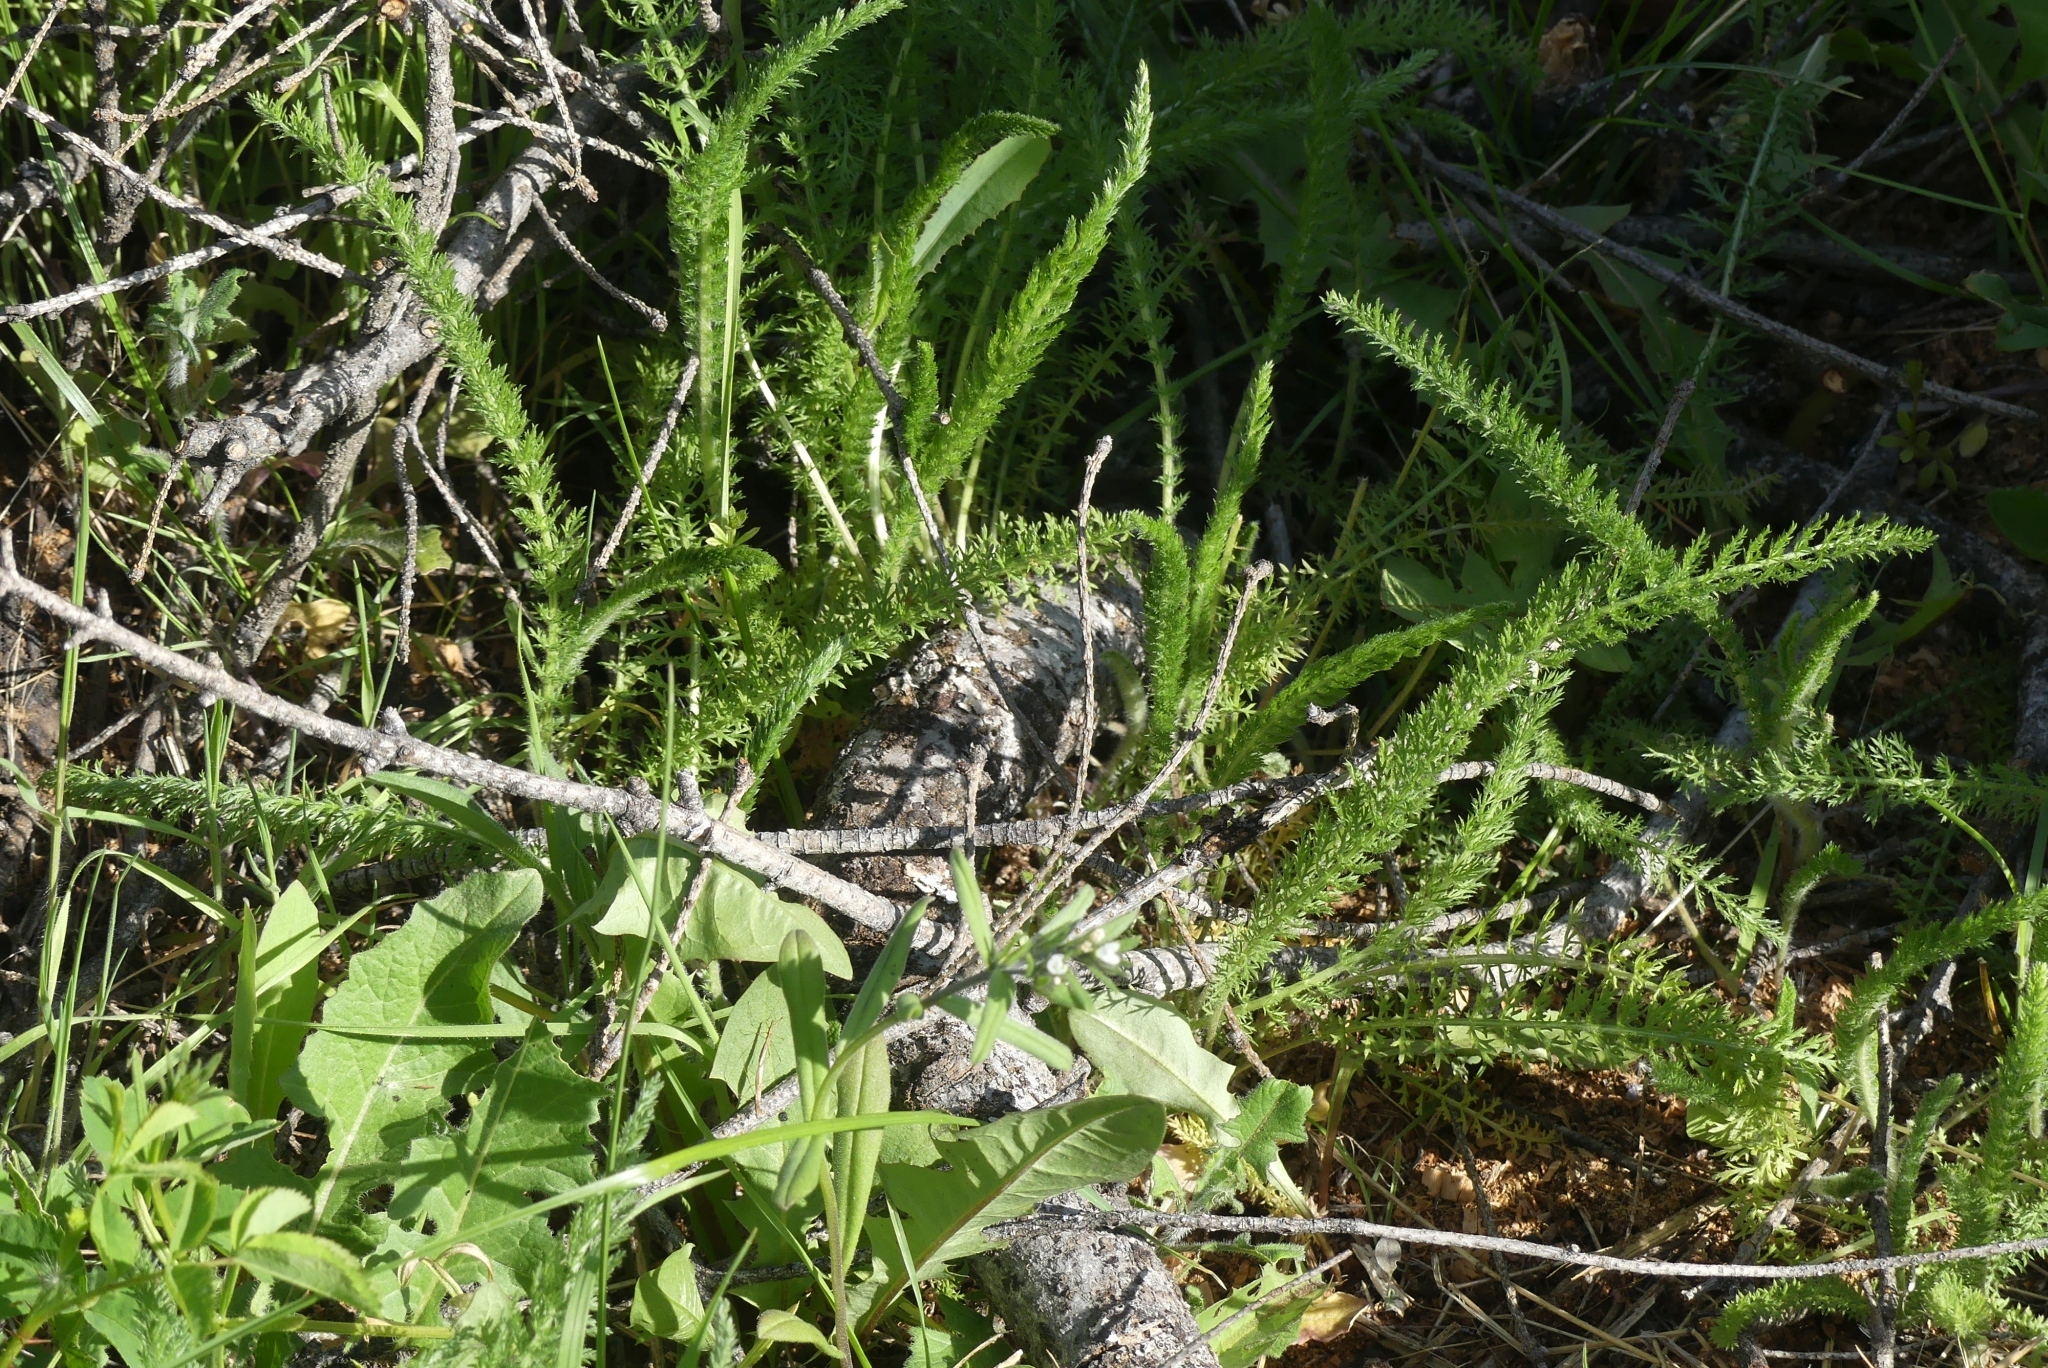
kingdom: Plantae
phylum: Tracheophyta
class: Magnoliopsida
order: Asterales
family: Asteraceae
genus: Achillea
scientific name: Achillea millefolium
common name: Yarrow
